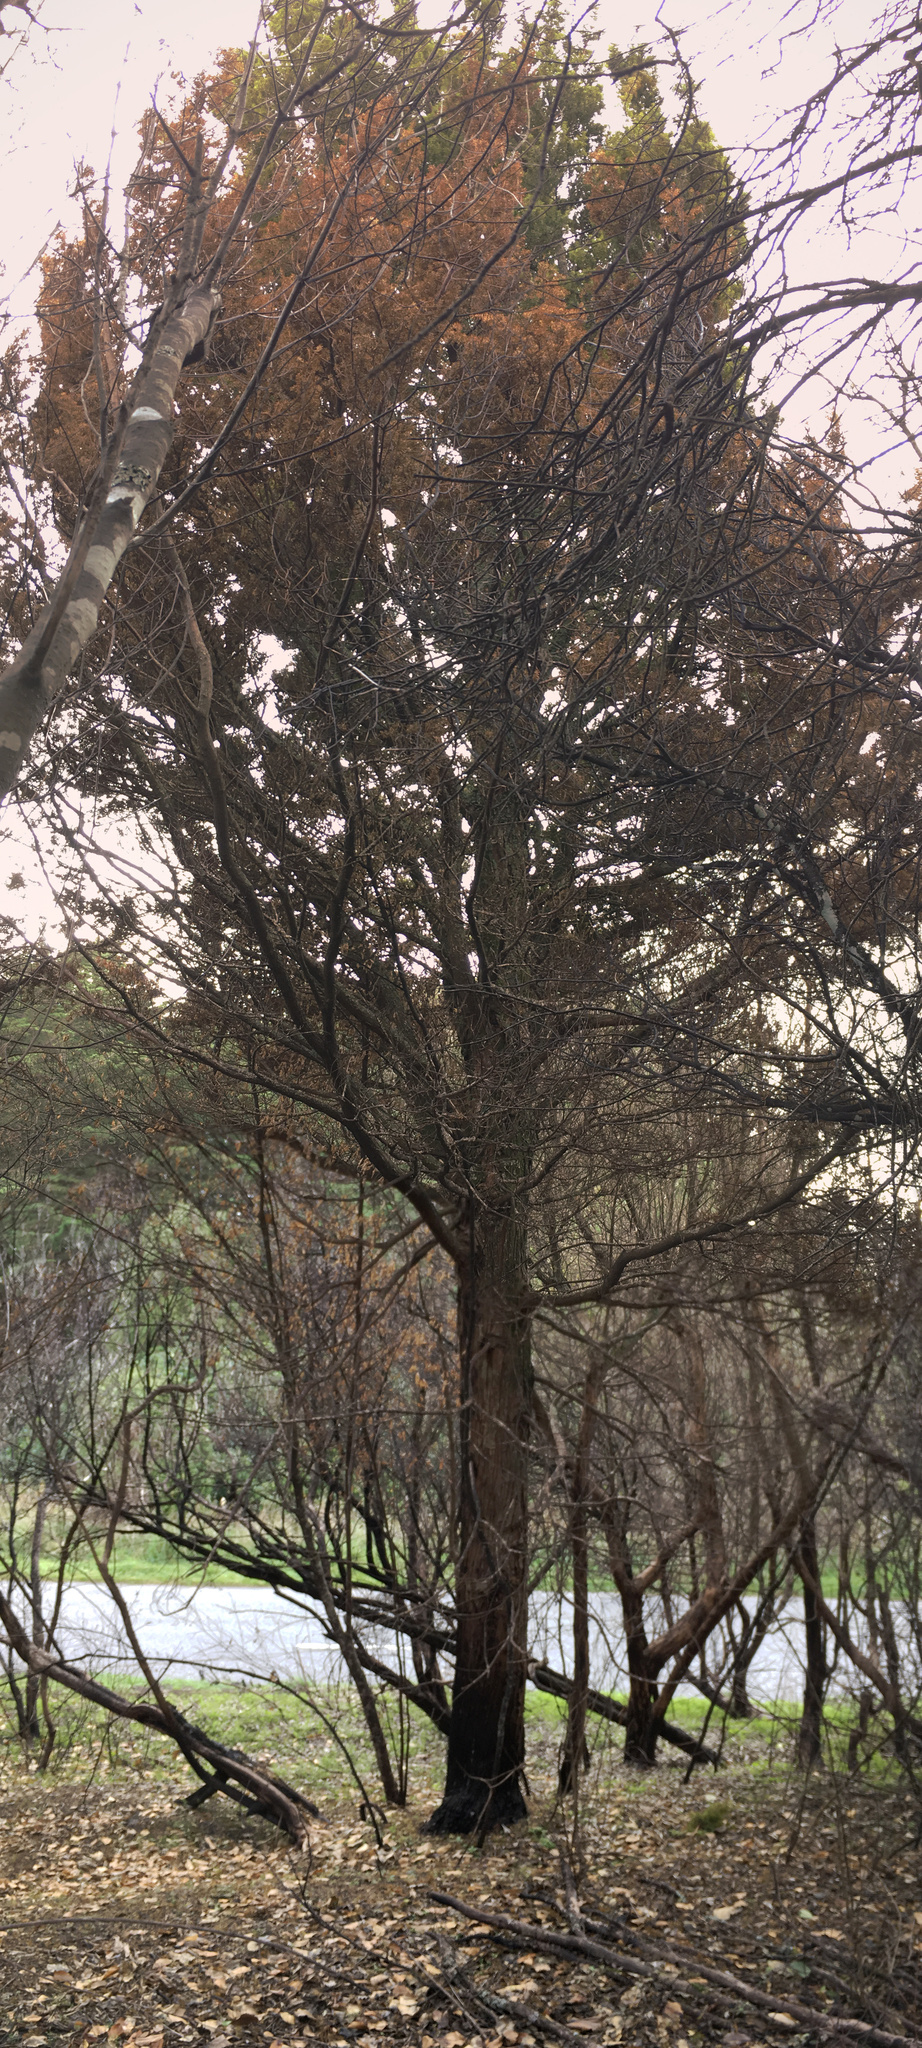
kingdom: Plantae
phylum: Tracheophyta
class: Pinopsida
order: Pinales
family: Podocarpaceae
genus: Podocarpus
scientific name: Podocarpus totara
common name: Totara
